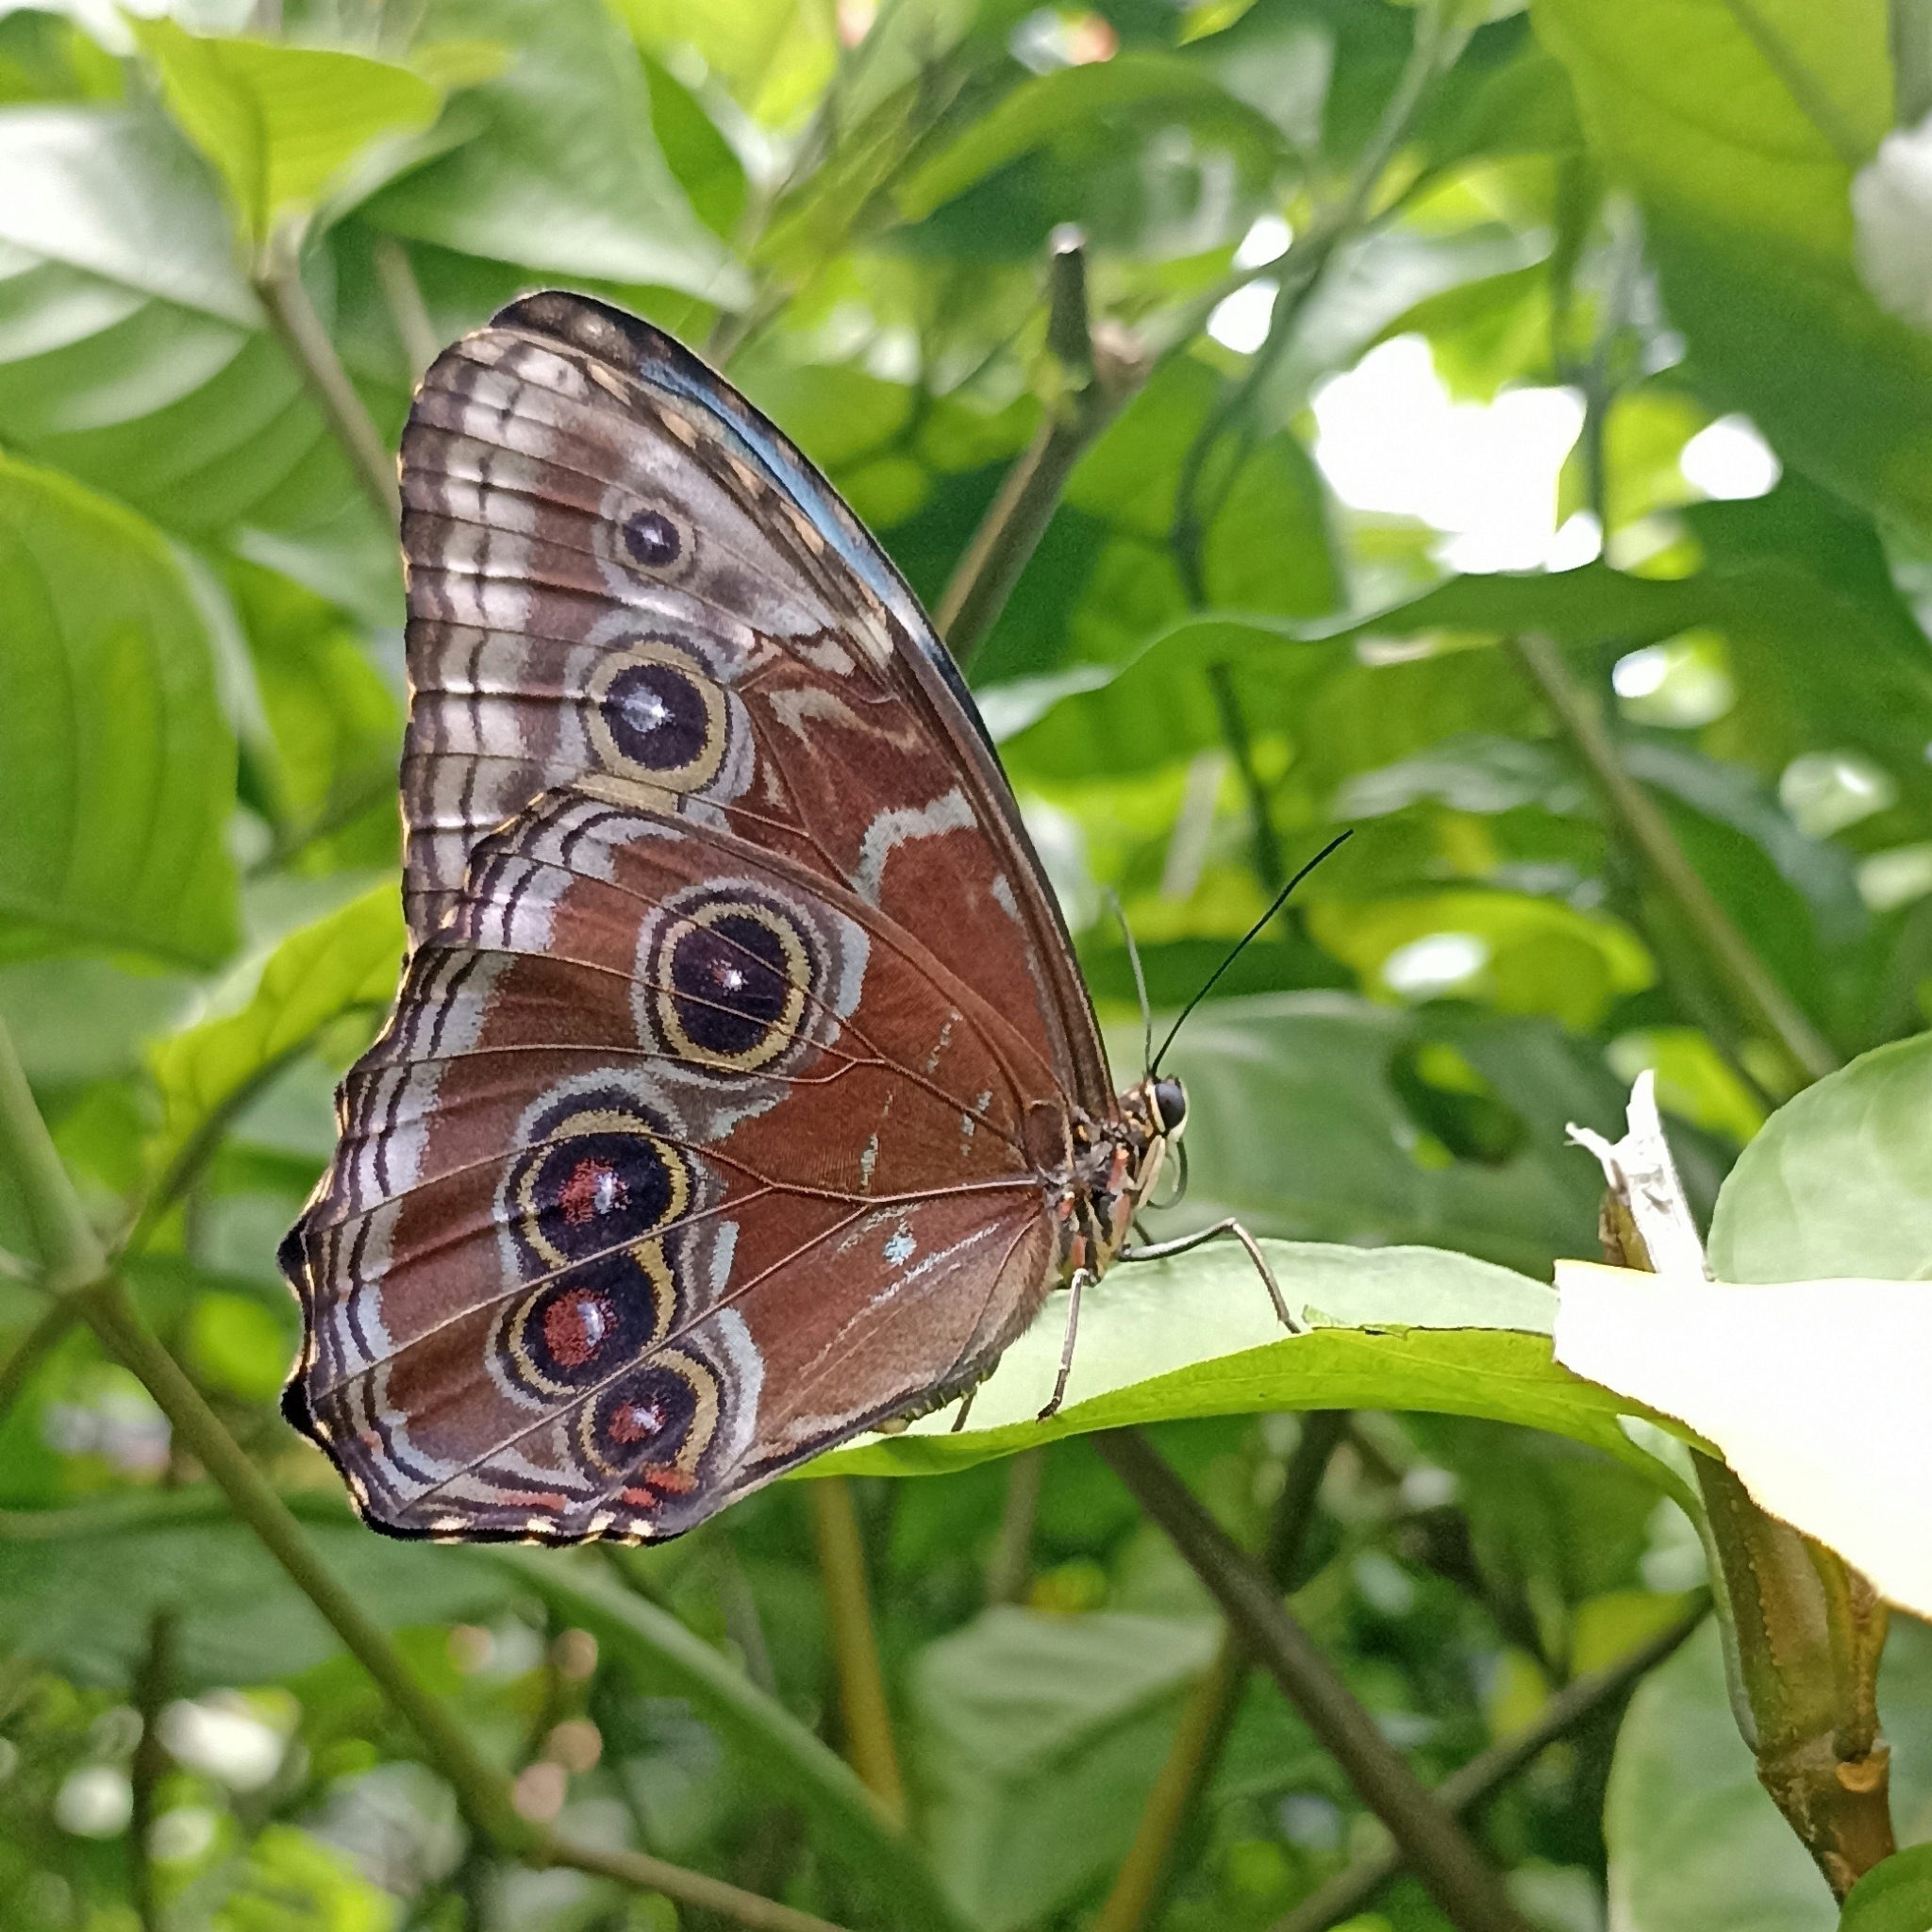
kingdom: Animalia
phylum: Arthropoda
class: Insecta
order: Lepidoptera
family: Nymphalidae
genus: Morpho
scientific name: Morpho helenor
